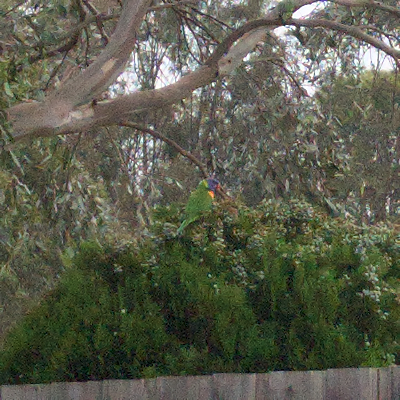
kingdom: Animalia
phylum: Chordata
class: Aves
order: Psittaciformes
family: Psittacidae
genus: Trichoglossus
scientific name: Trichoglossus haematodus
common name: Coconut lorikeet
